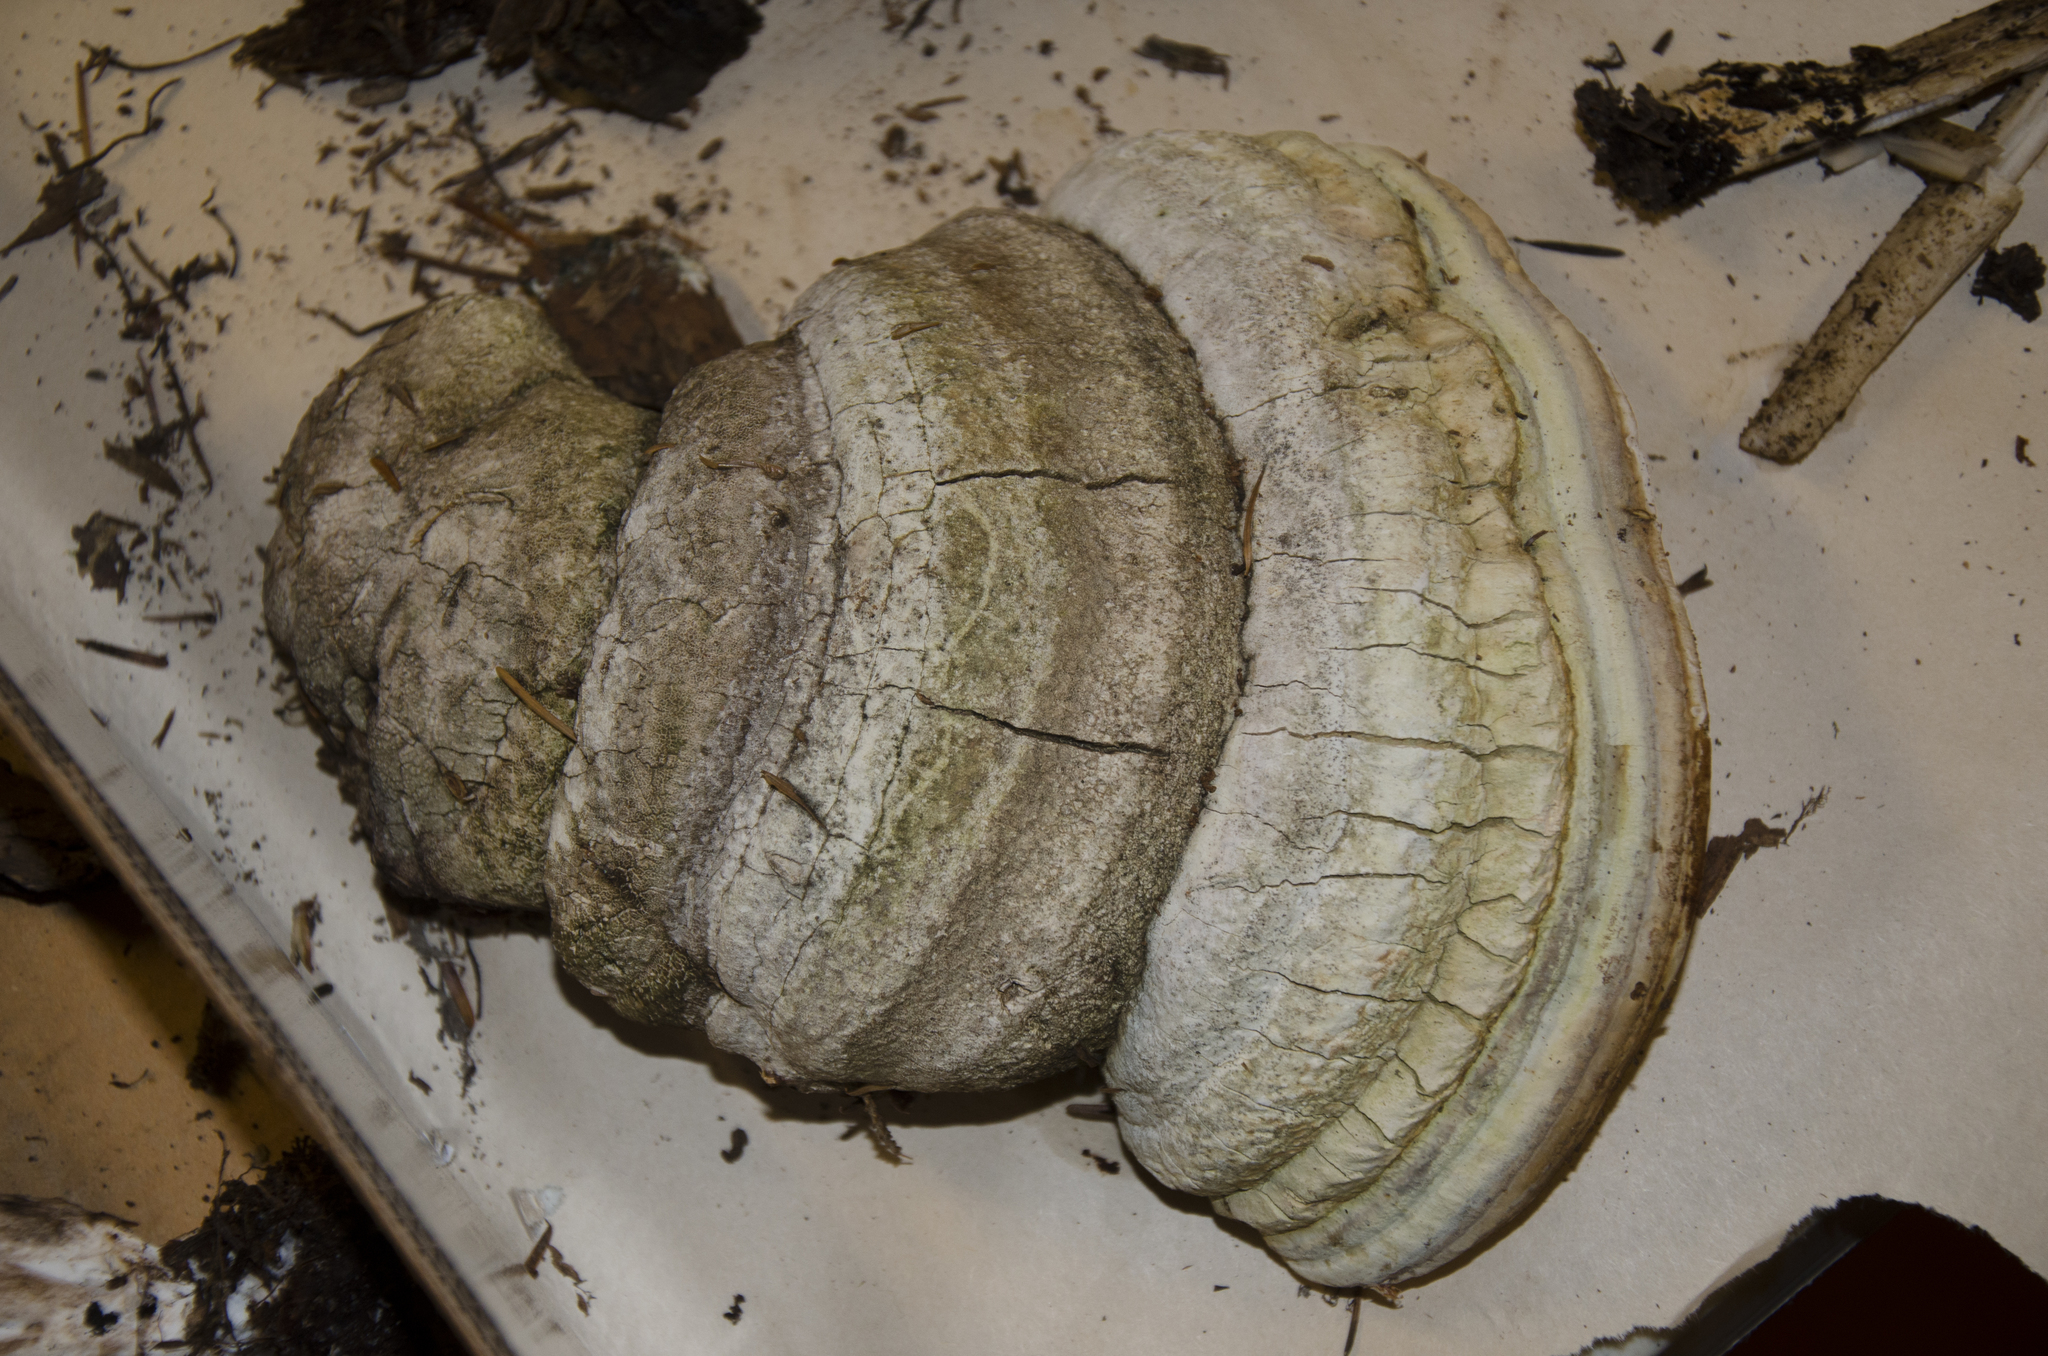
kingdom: Fungi
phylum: Basidiomycota
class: Agaricomycetes
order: Polyporales
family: Fomitopsidaceae
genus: Fomitopsis
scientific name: Fomitopsis officinalis
